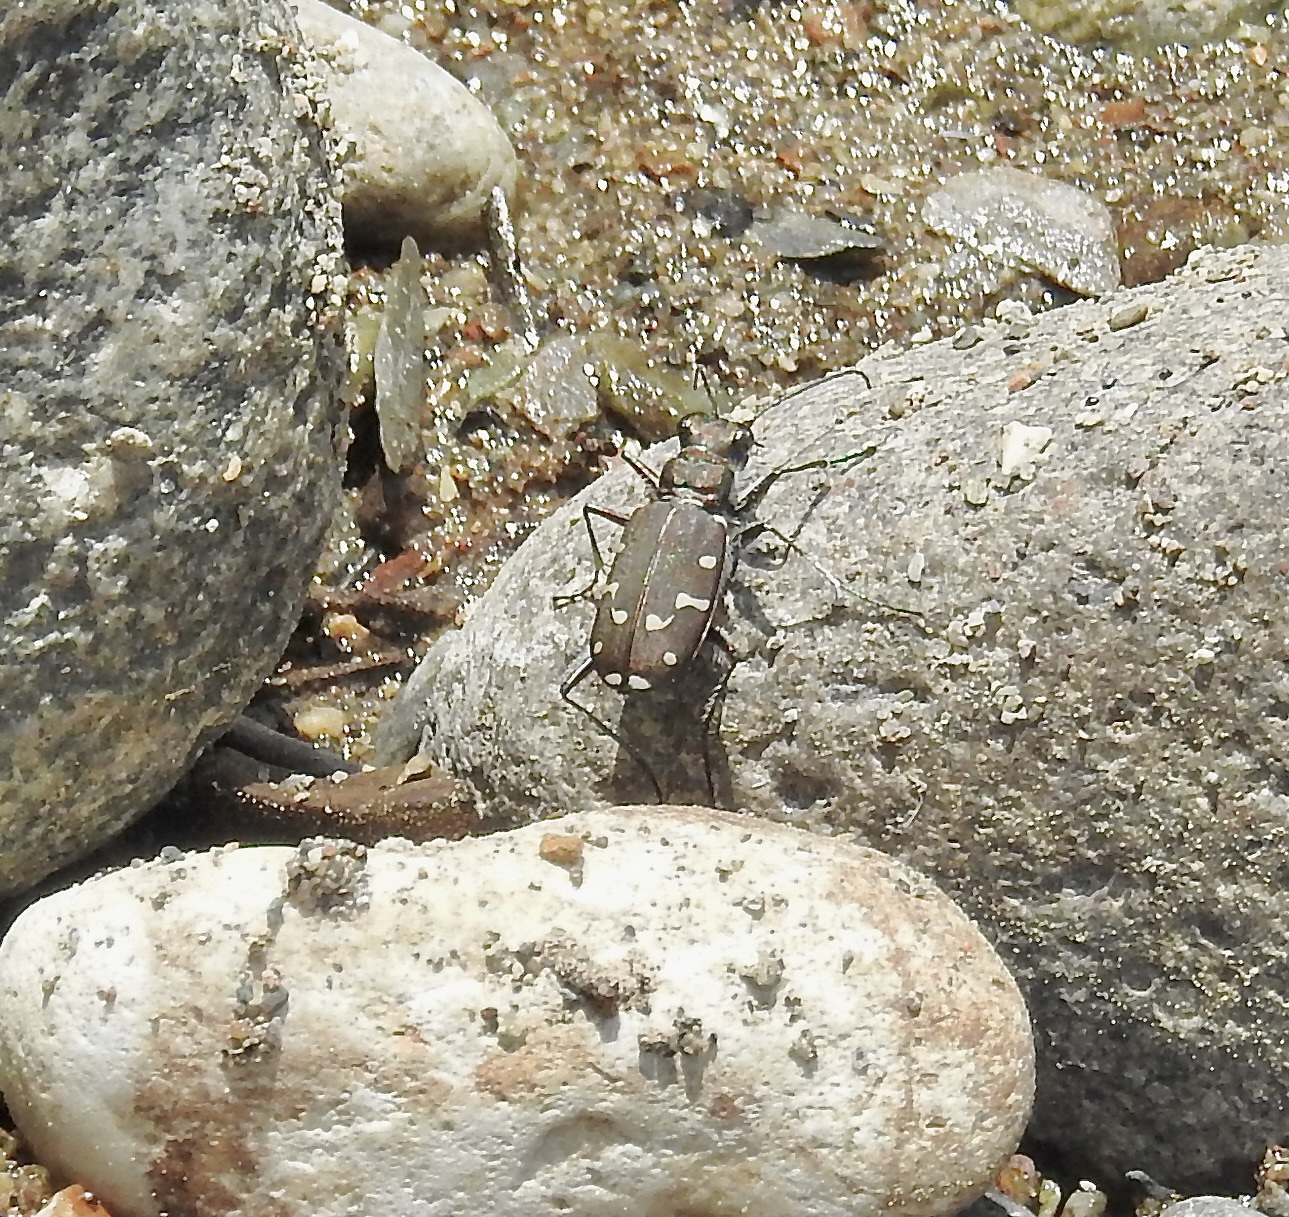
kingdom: Animalia
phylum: Arthropoda
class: Insecta
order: Coleoptera
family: Carabidae
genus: Cicindela
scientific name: Cicindela oregona
